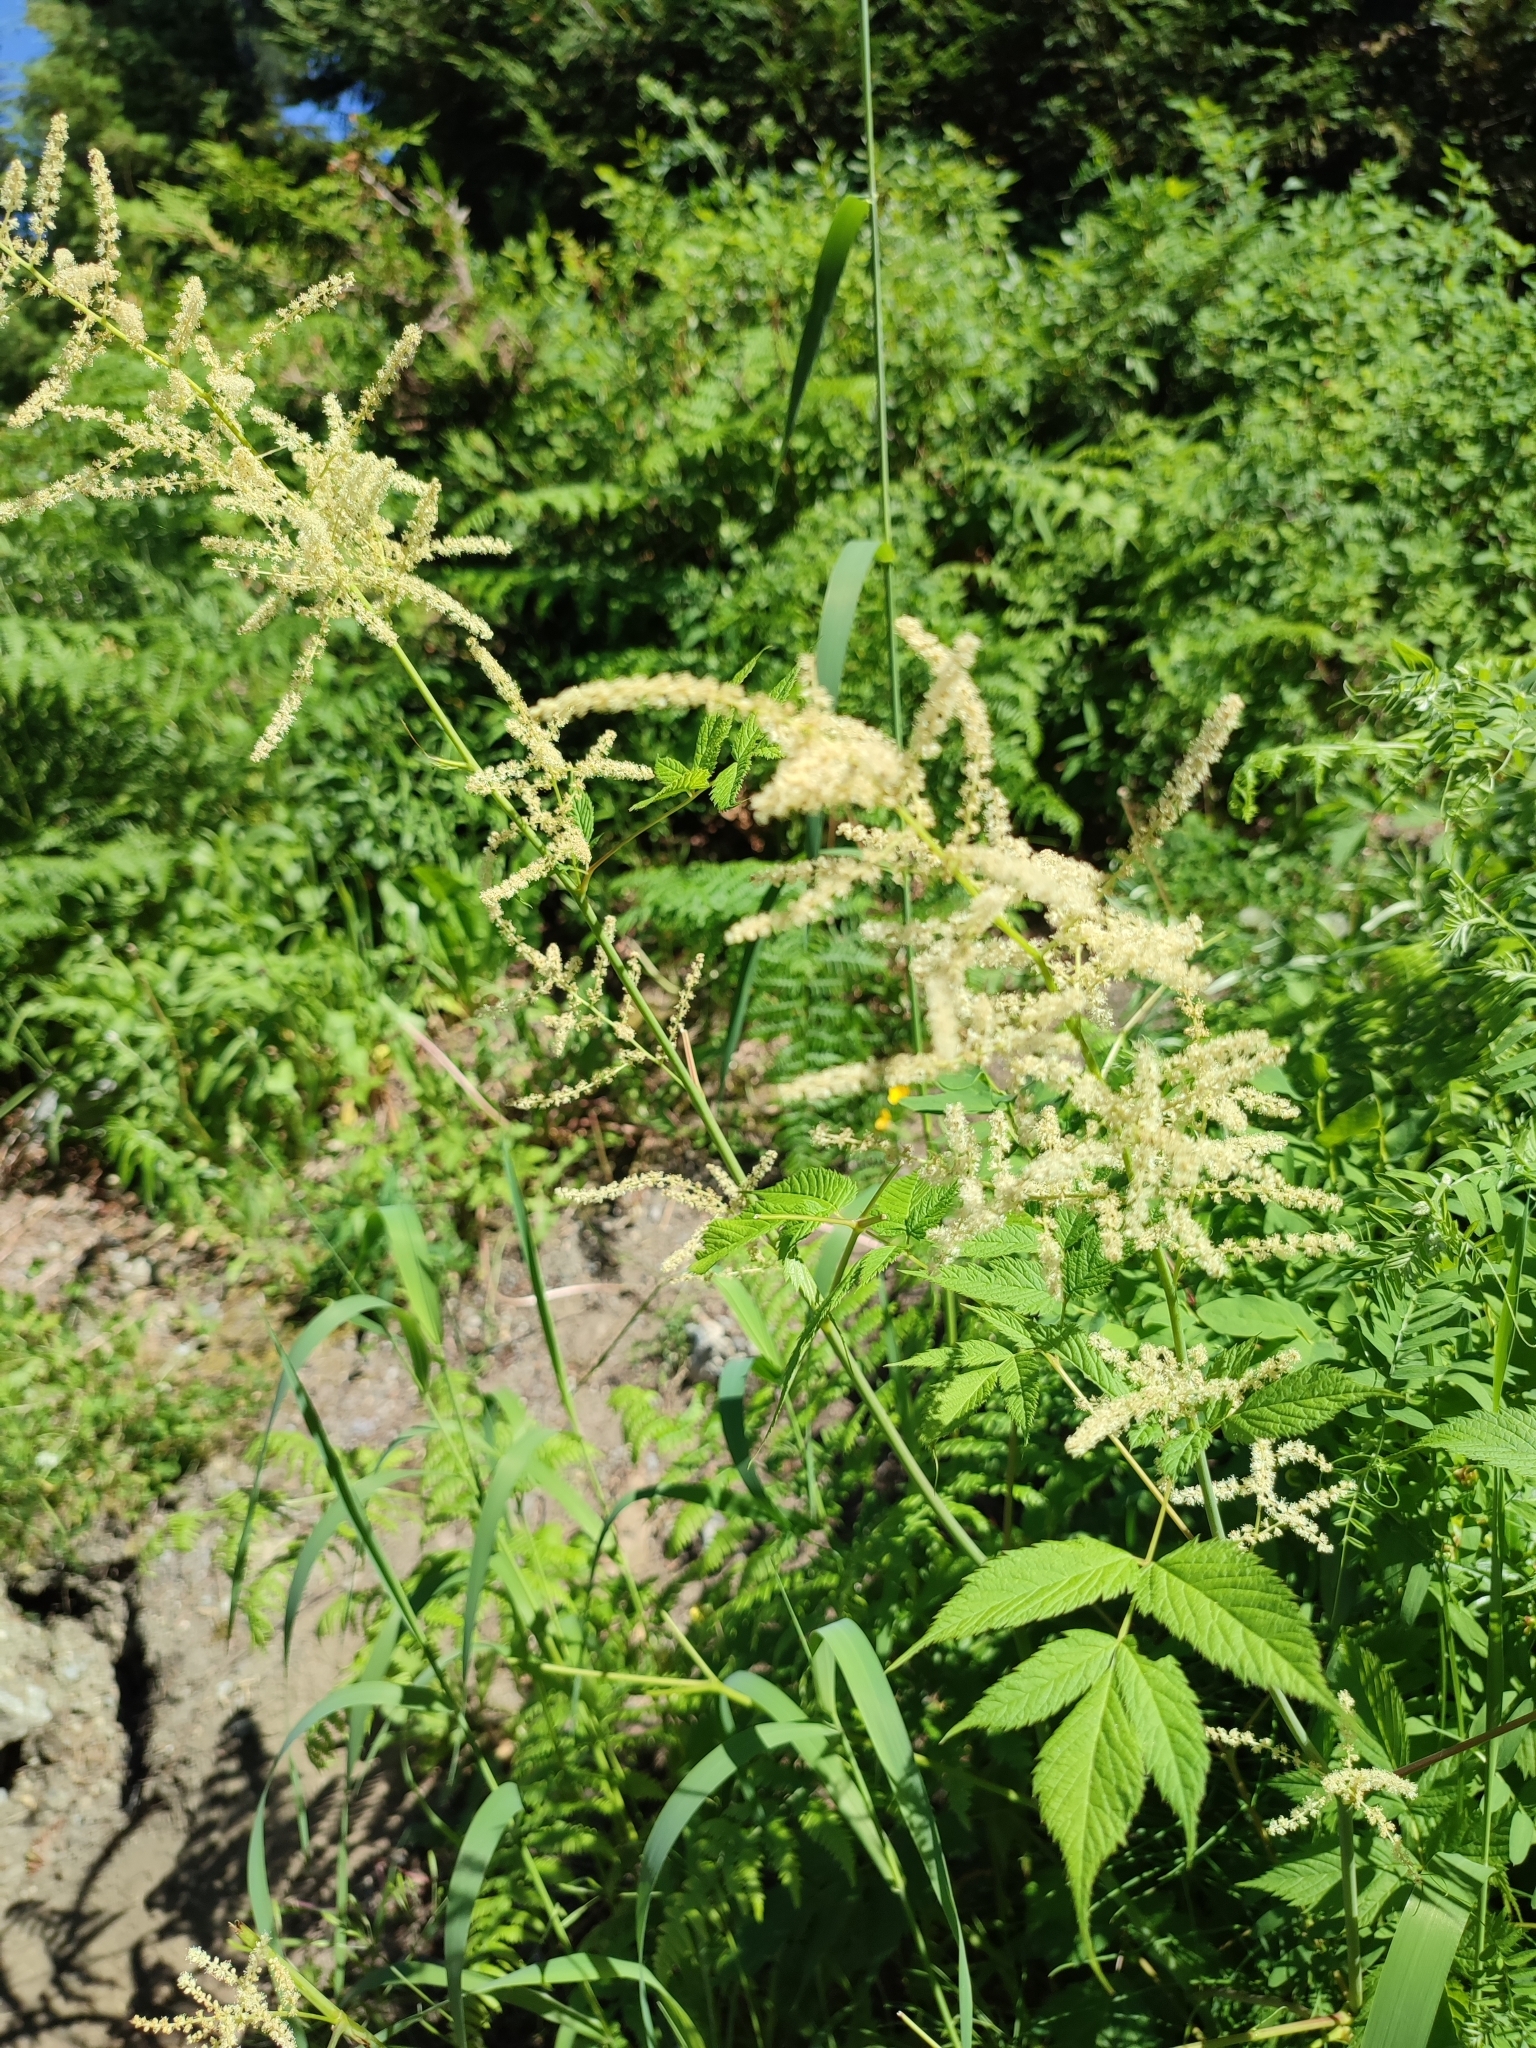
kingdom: Plantae
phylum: Tracheophyta
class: Magnoliopsida
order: Rosales
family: Rosaceae
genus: Aruncus
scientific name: Aruncus dioicus
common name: Buck's-beard
